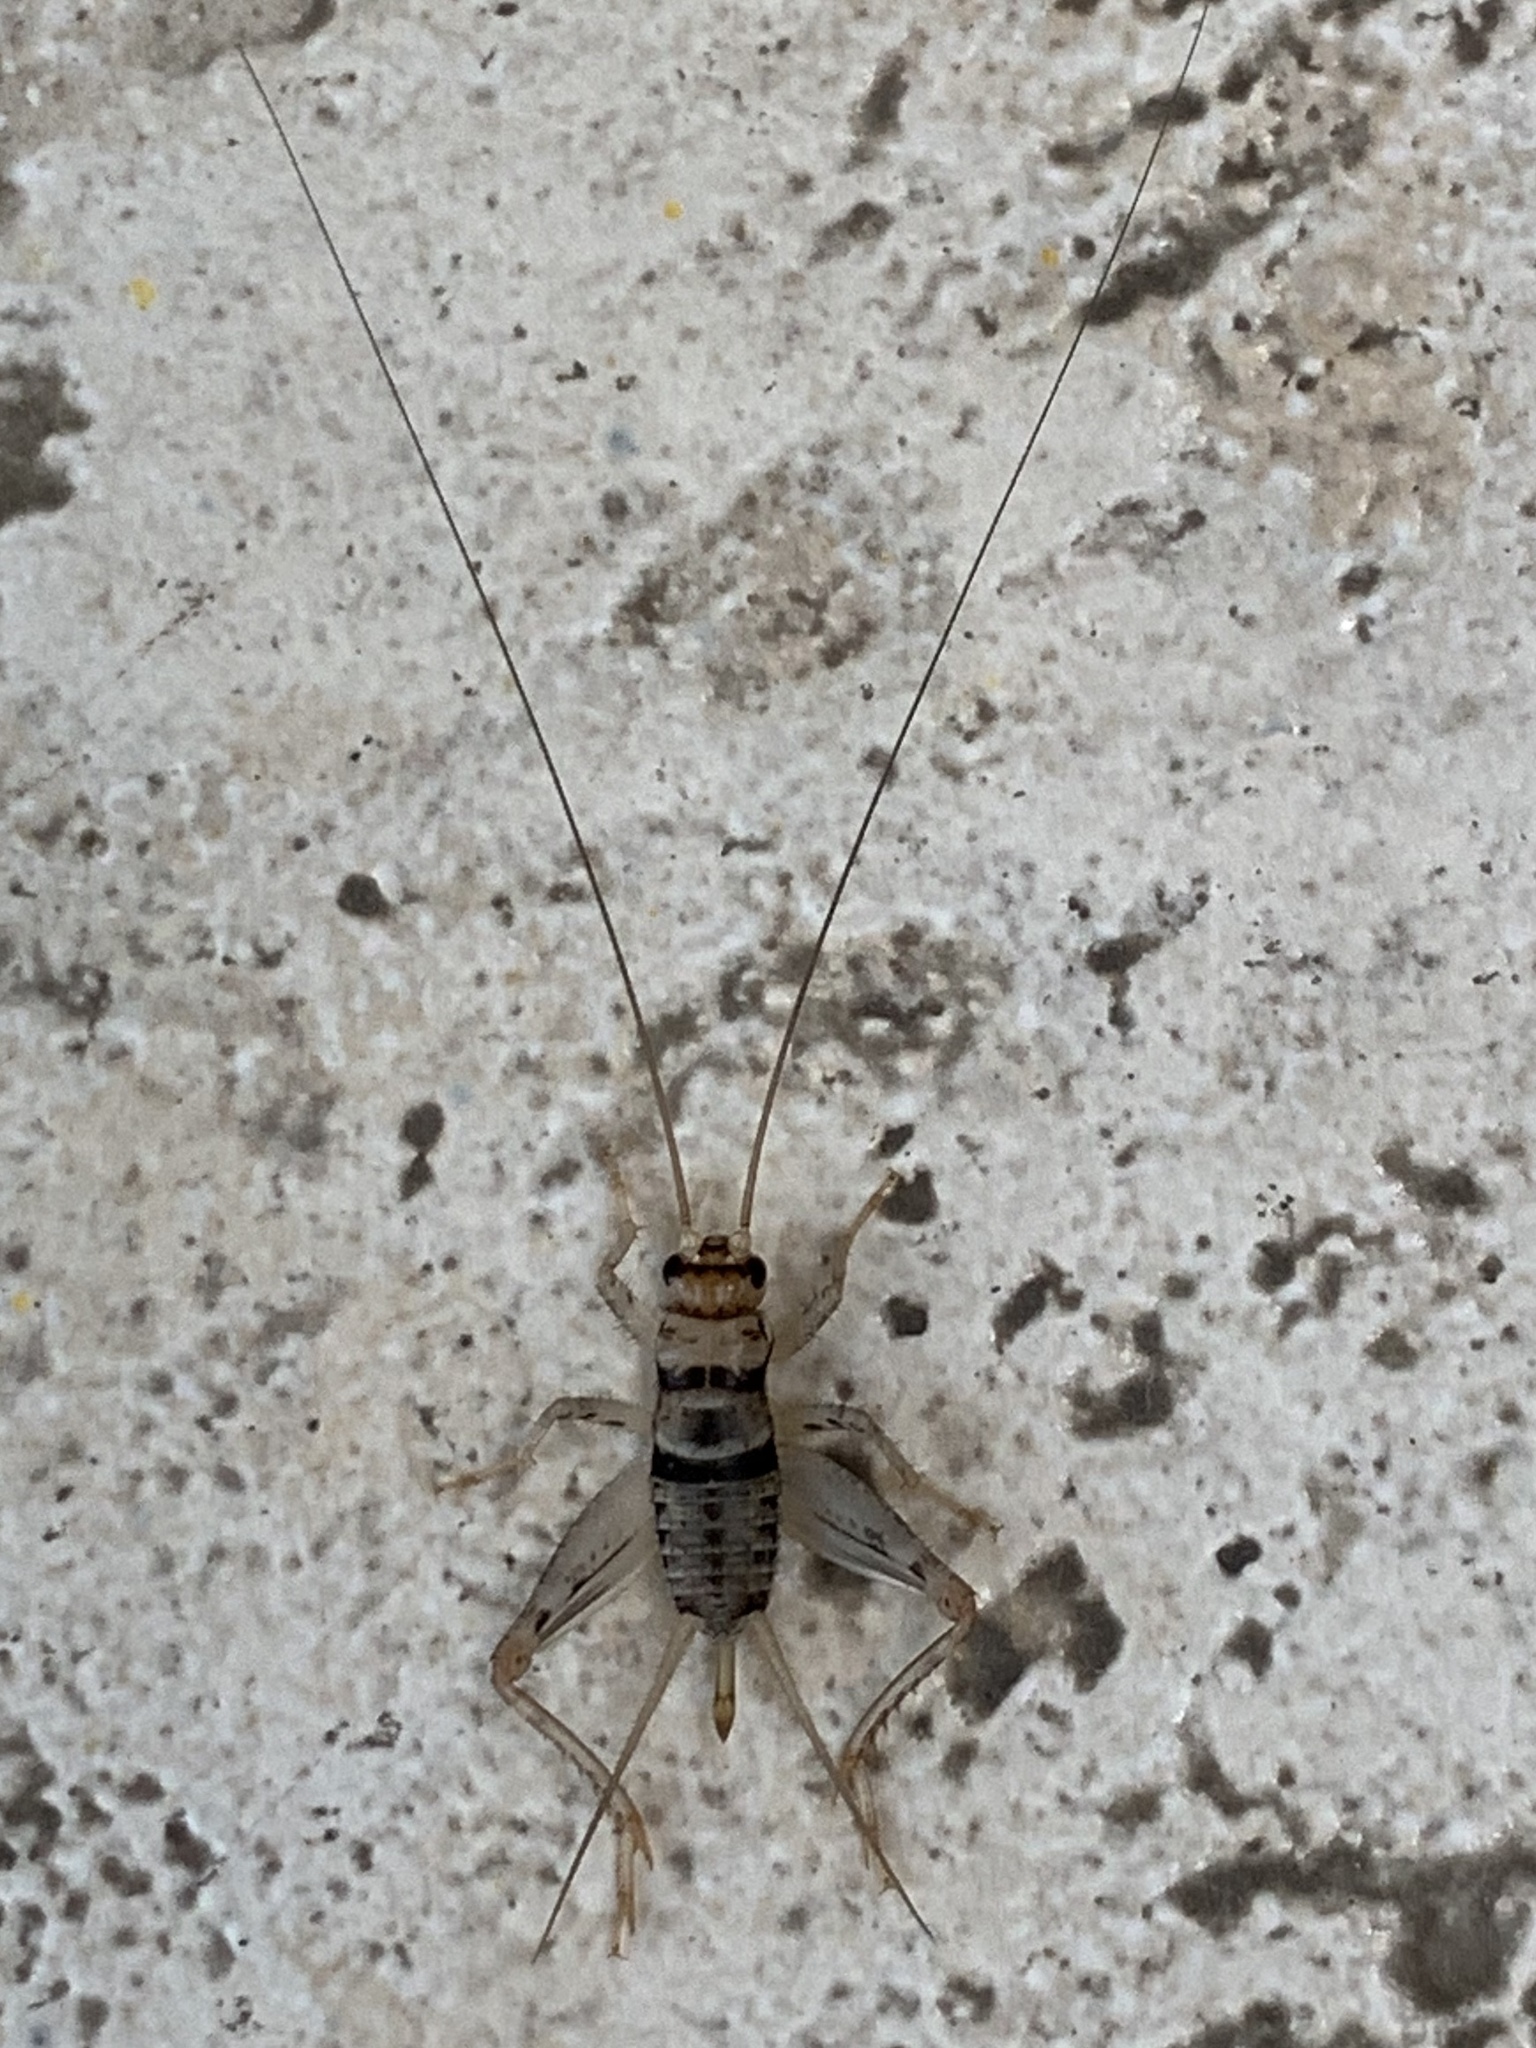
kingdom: Animalia
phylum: Arthropoda
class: Insecta
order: Orthoptera
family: Gryllidae
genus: Gryllodes
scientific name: Gryllodes sigillatus
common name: Tropical house cricket
